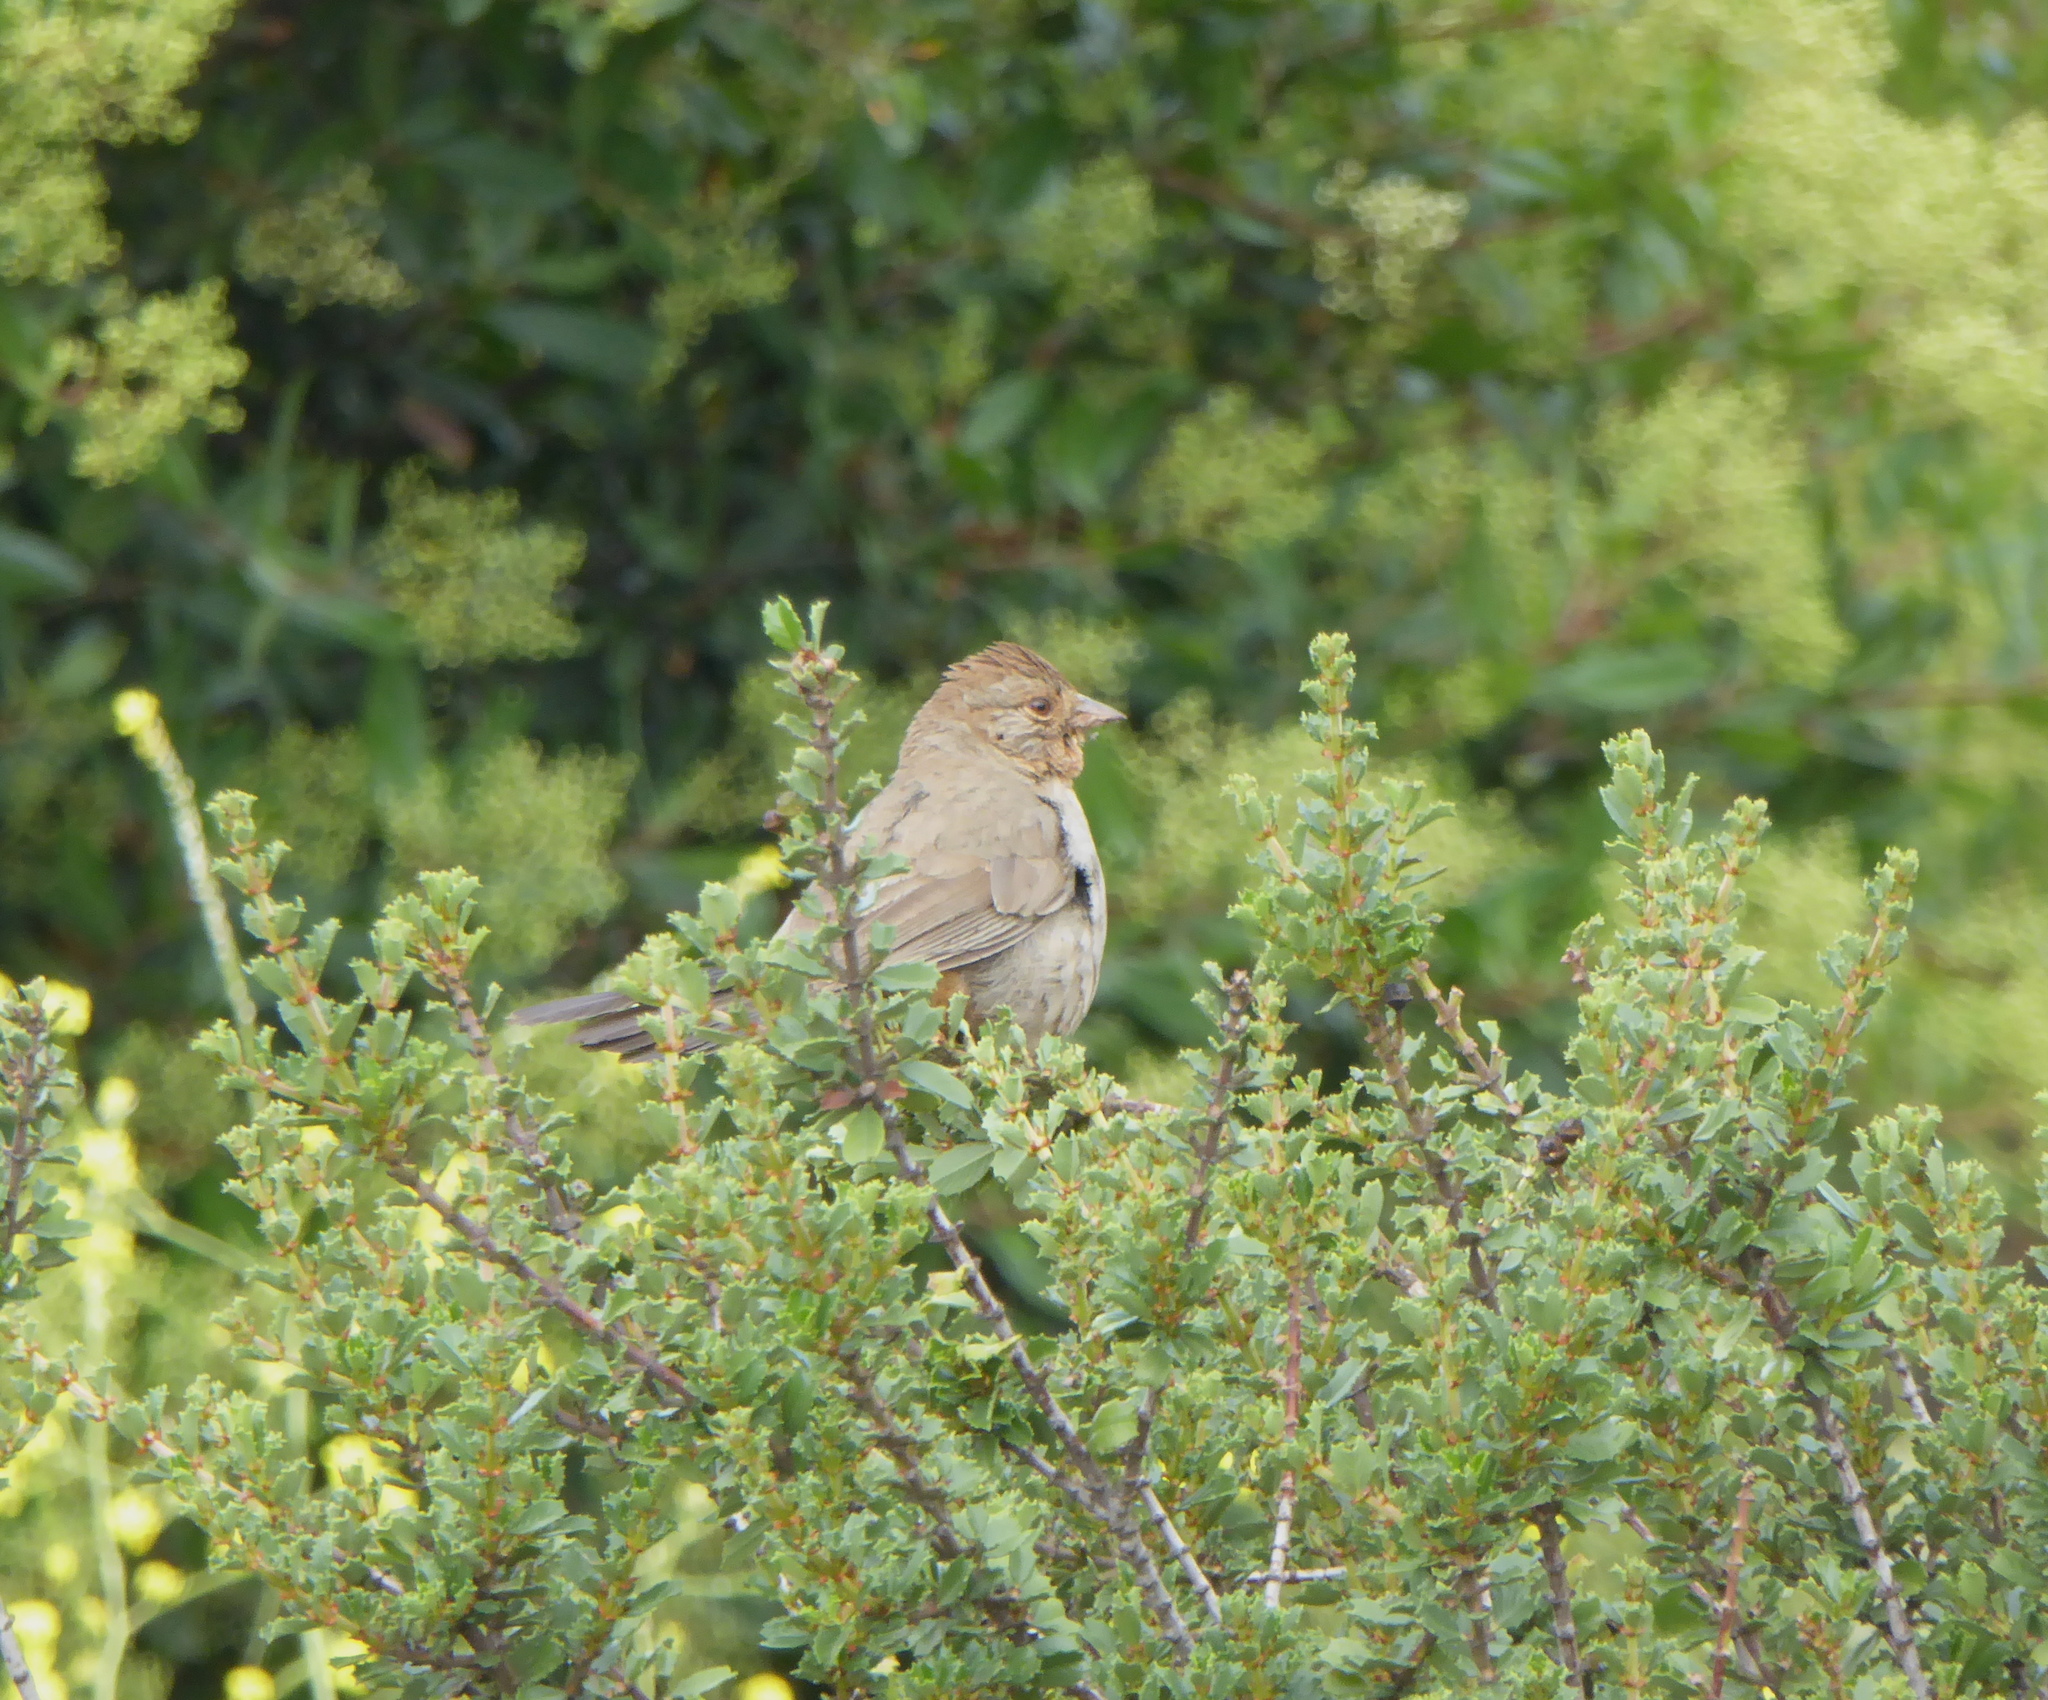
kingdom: Animalia
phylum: Chordata
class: Aves
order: Passeriformes
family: Passerellidae
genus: Melozone
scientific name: Melozone crissalis
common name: California towhee
